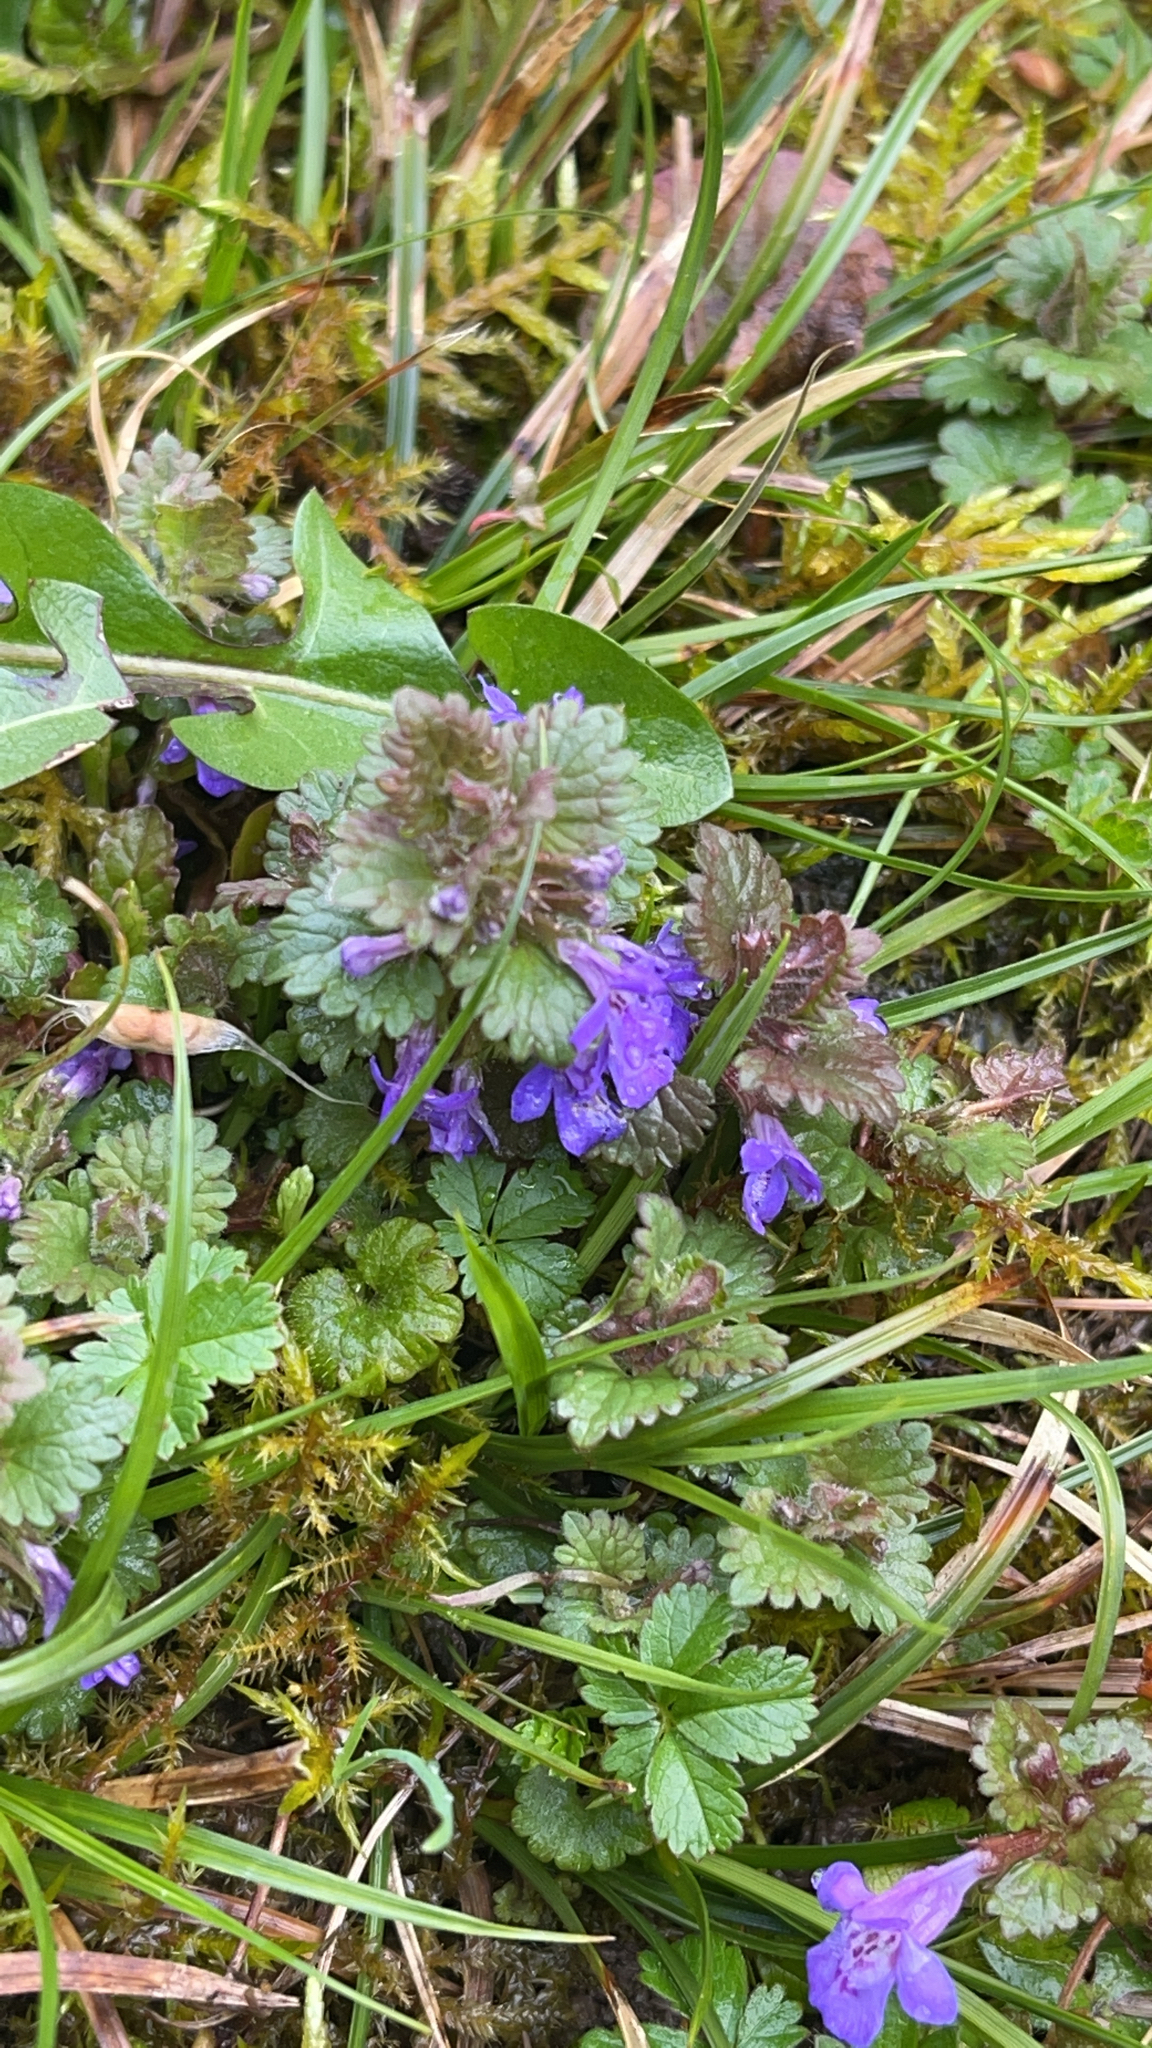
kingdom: Plantae
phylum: Tracheophyta
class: Magnoliopsida
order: Lamiales
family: Lamiaceae
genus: Glechoma
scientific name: Glechoma hederacea
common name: Ground ivy
